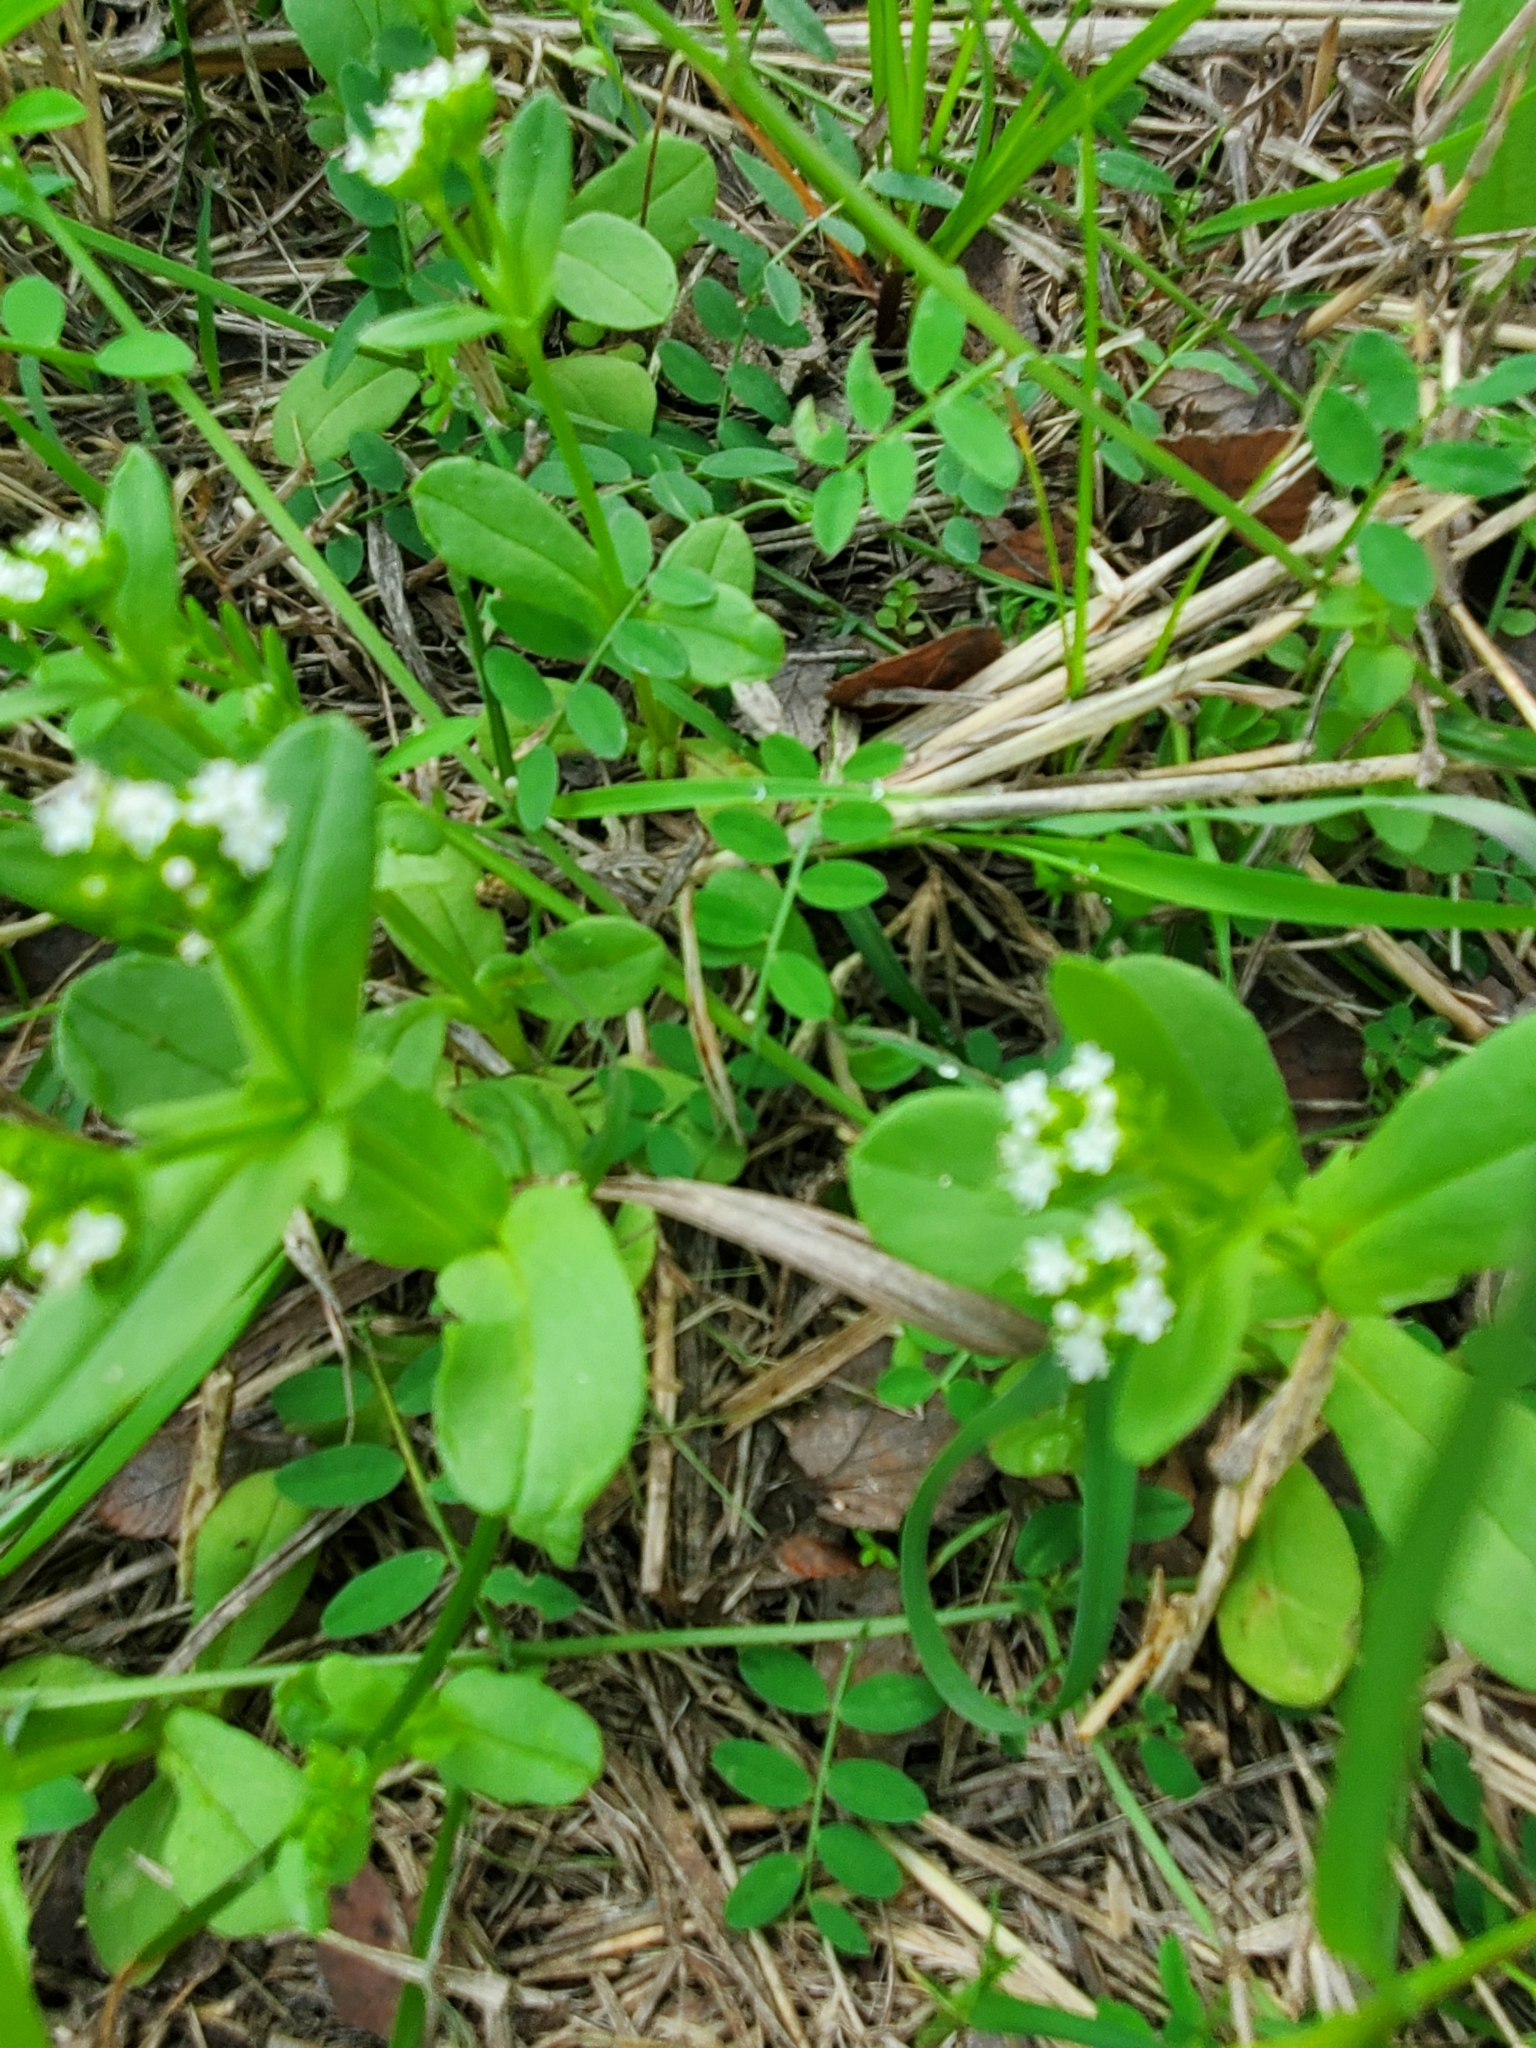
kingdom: Plantae
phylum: Tracheophyta
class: Magnoliopsida
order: Dipsacales
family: Caprifoliaceae
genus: Valerianella
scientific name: Valerianella radiata
